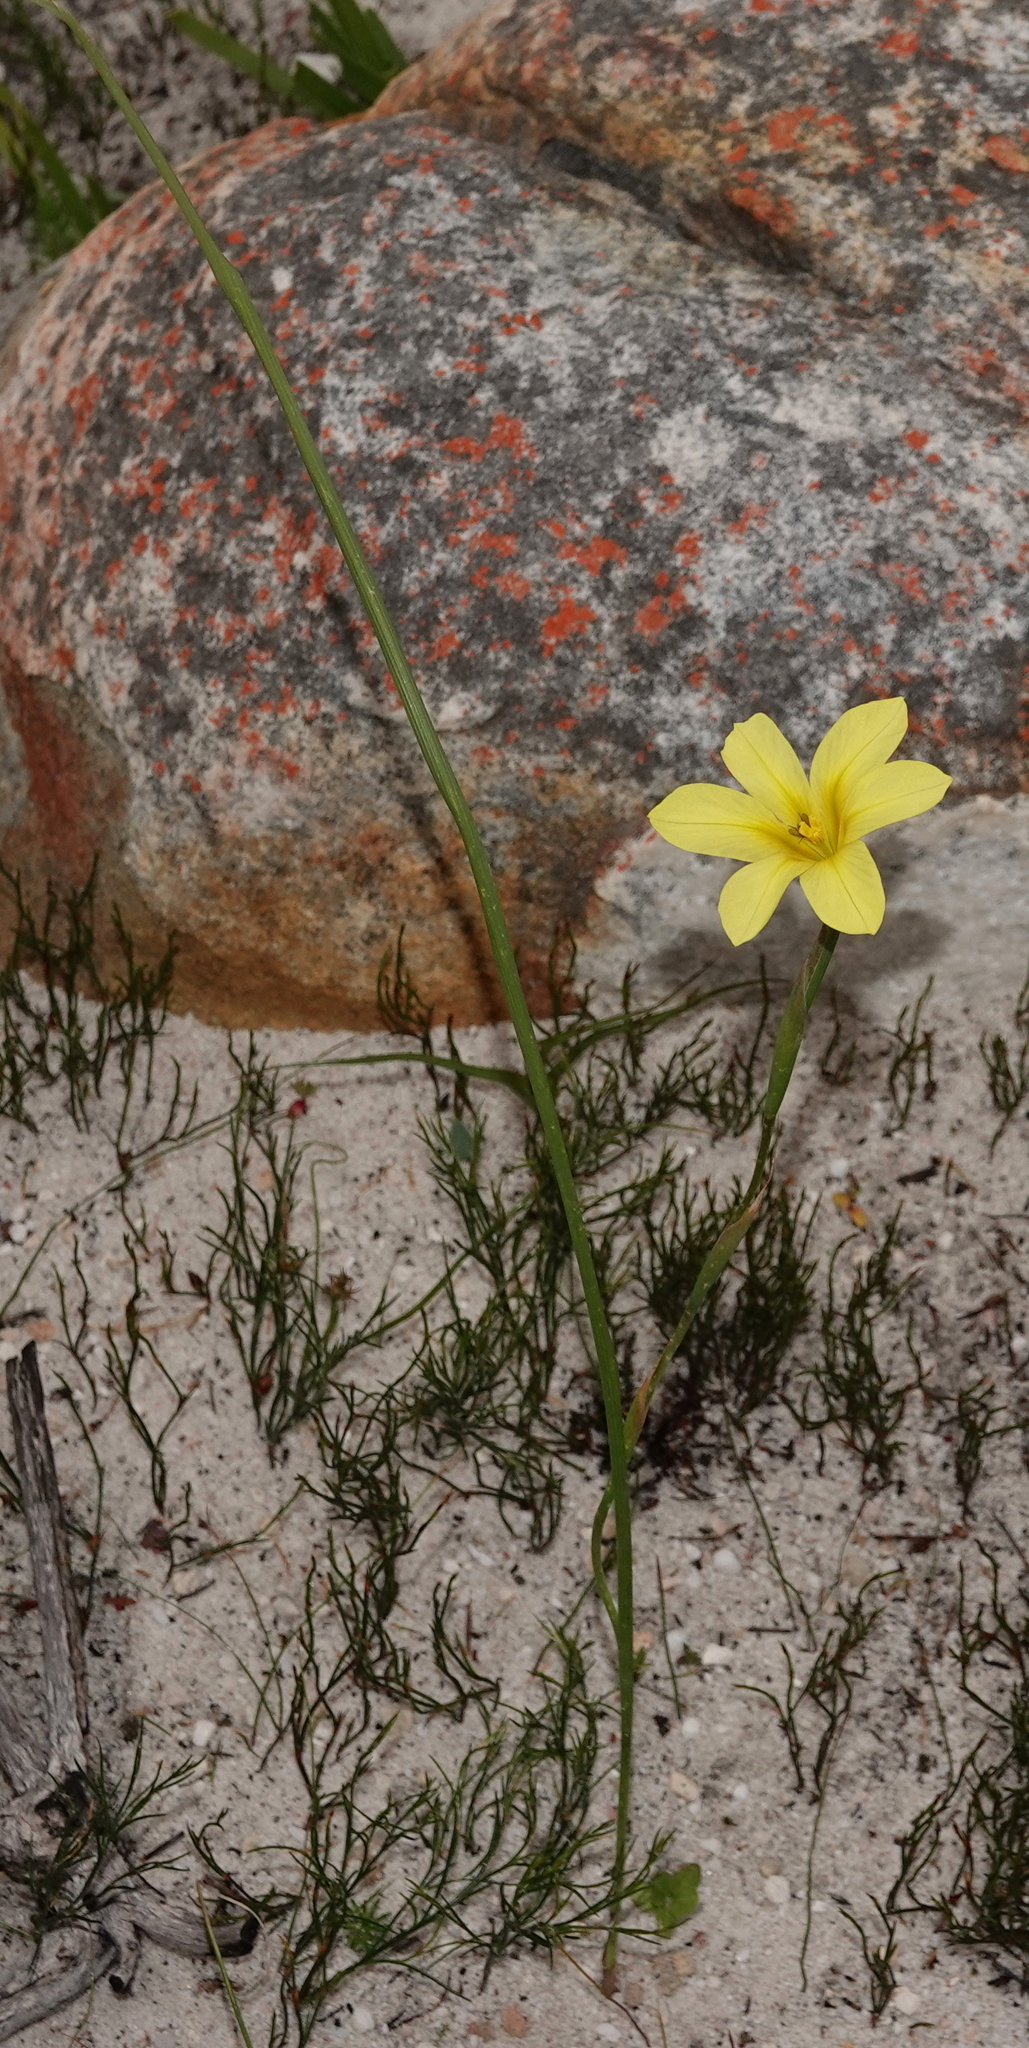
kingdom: Plantae
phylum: Tracheophyta
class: Liliopsida
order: Asparagales
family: Iridaceae
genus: Moraea
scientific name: Moraea ochroleuca
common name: Red tulp
